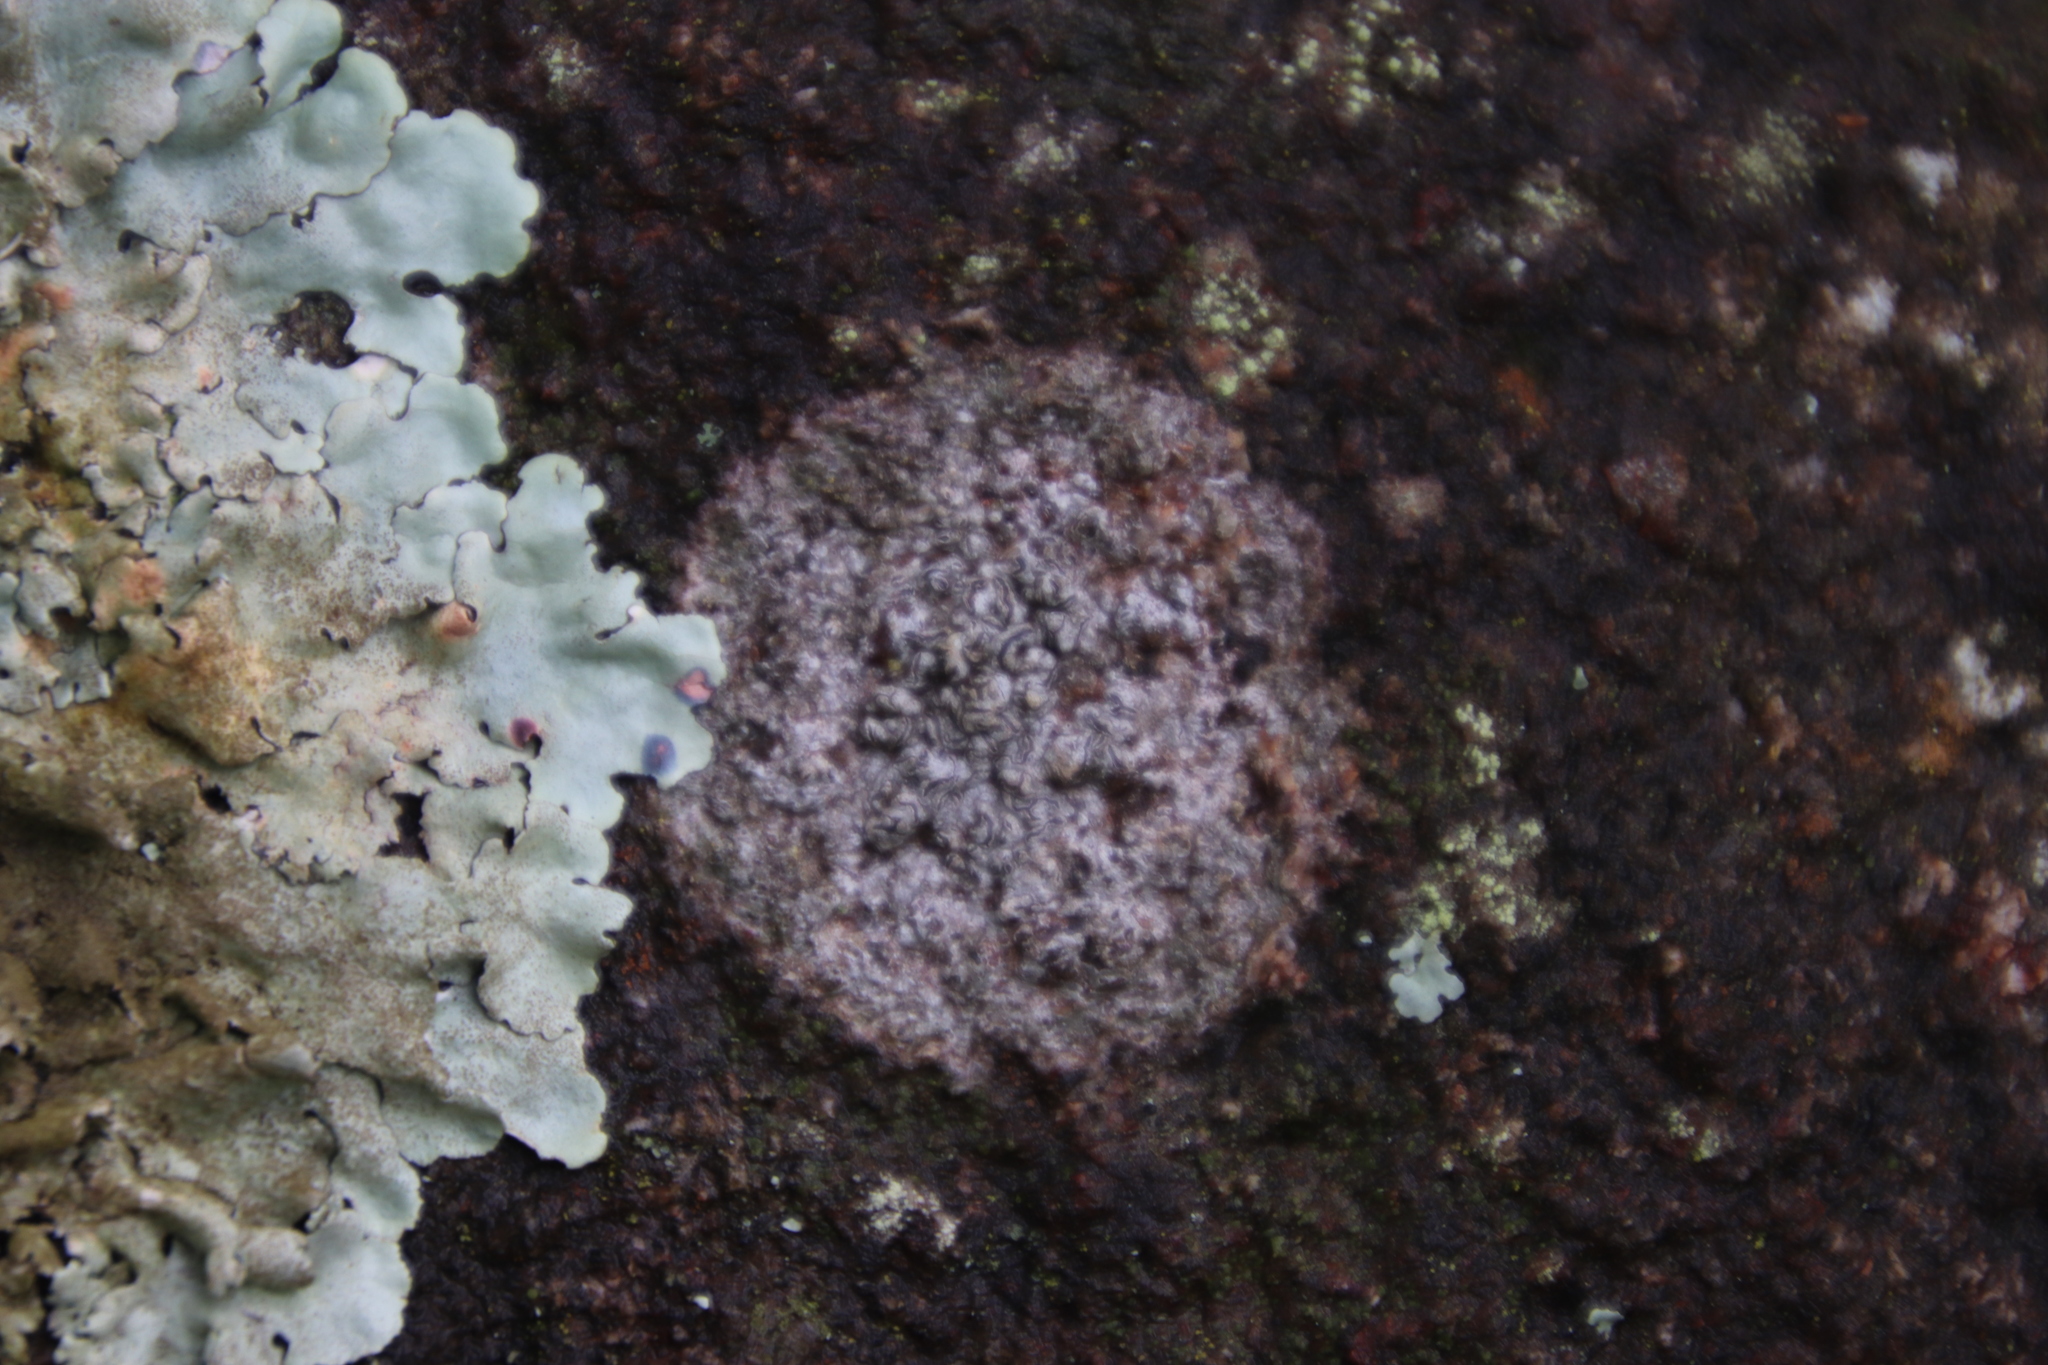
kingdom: Fungi
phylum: Ascomycota
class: Lecanoromycetes
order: Lecanorales
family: Parmeliaceae
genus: Parmelina
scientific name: Parmelina tiliacea
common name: Linden shield lichen
